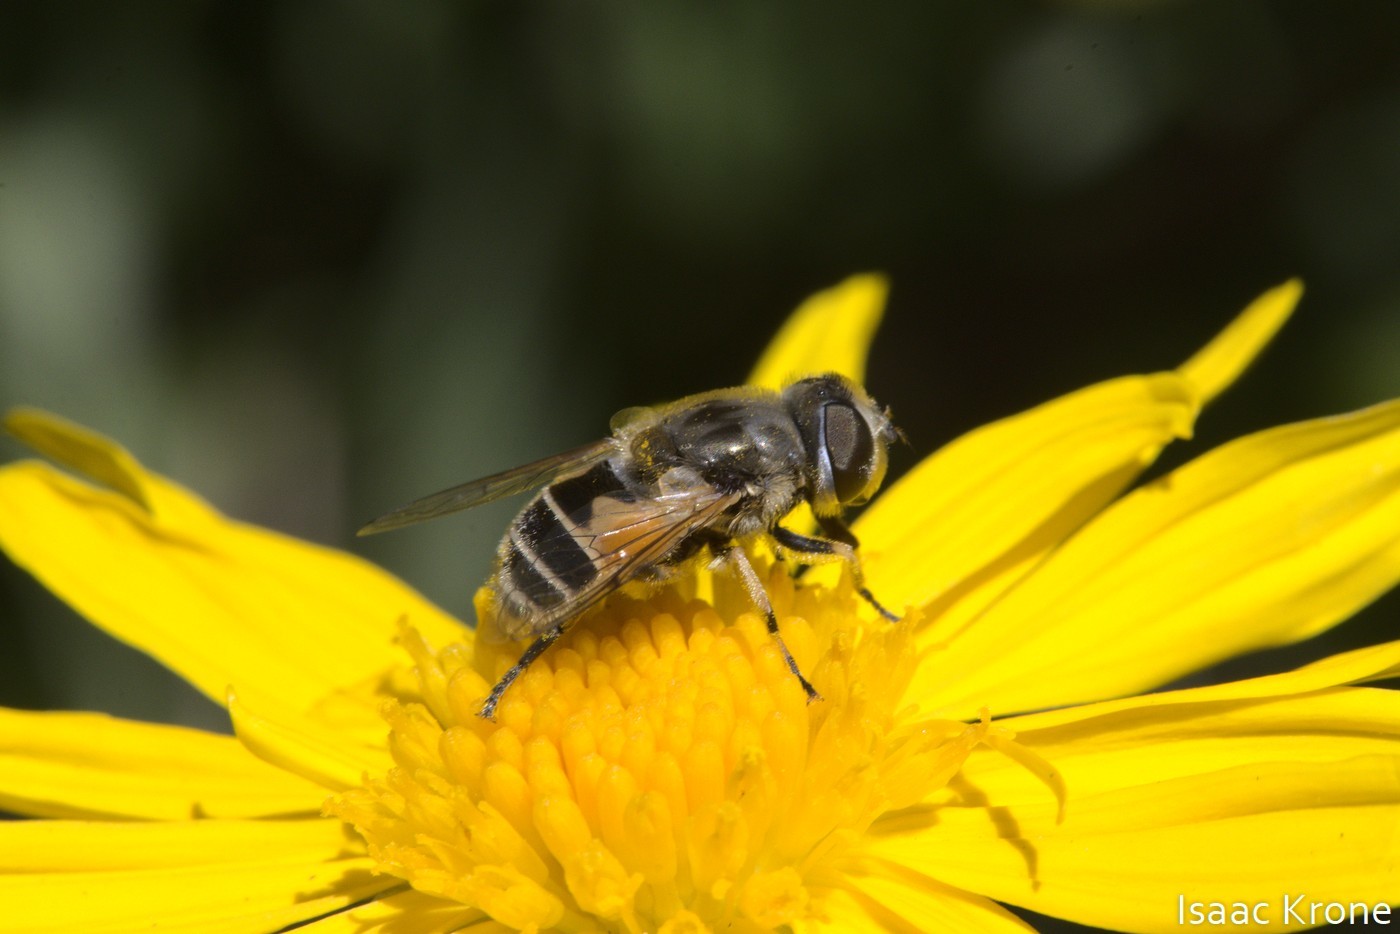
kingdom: Animalia
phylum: Arthropoda
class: Insecta
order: Diptera
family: Syrphidae
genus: Eristalis
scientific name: Eristalis arbustorum
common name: Hover fly
